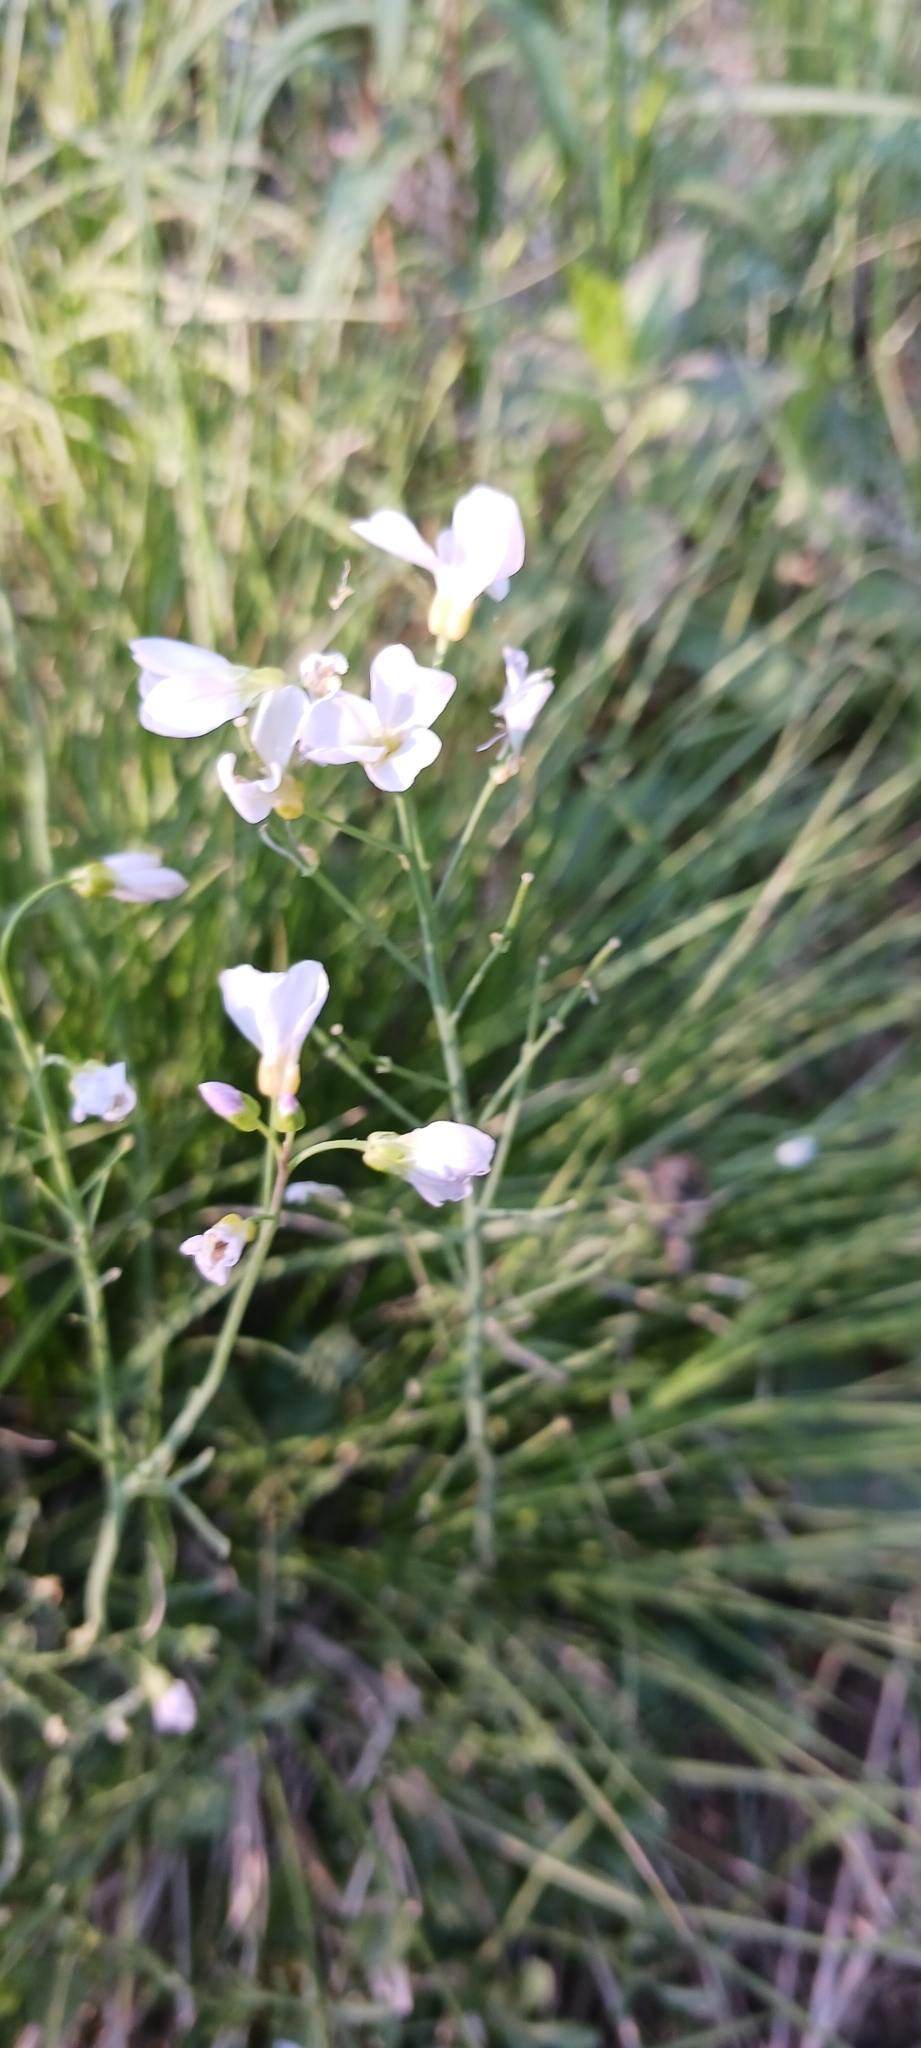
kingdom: Plantae
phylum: Tracheophyta
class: Magnoliopsida
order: Brassicales
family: Brassicaceae
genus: Cardamine
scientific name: Cardamine pratensis
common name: Cuckoo flower
